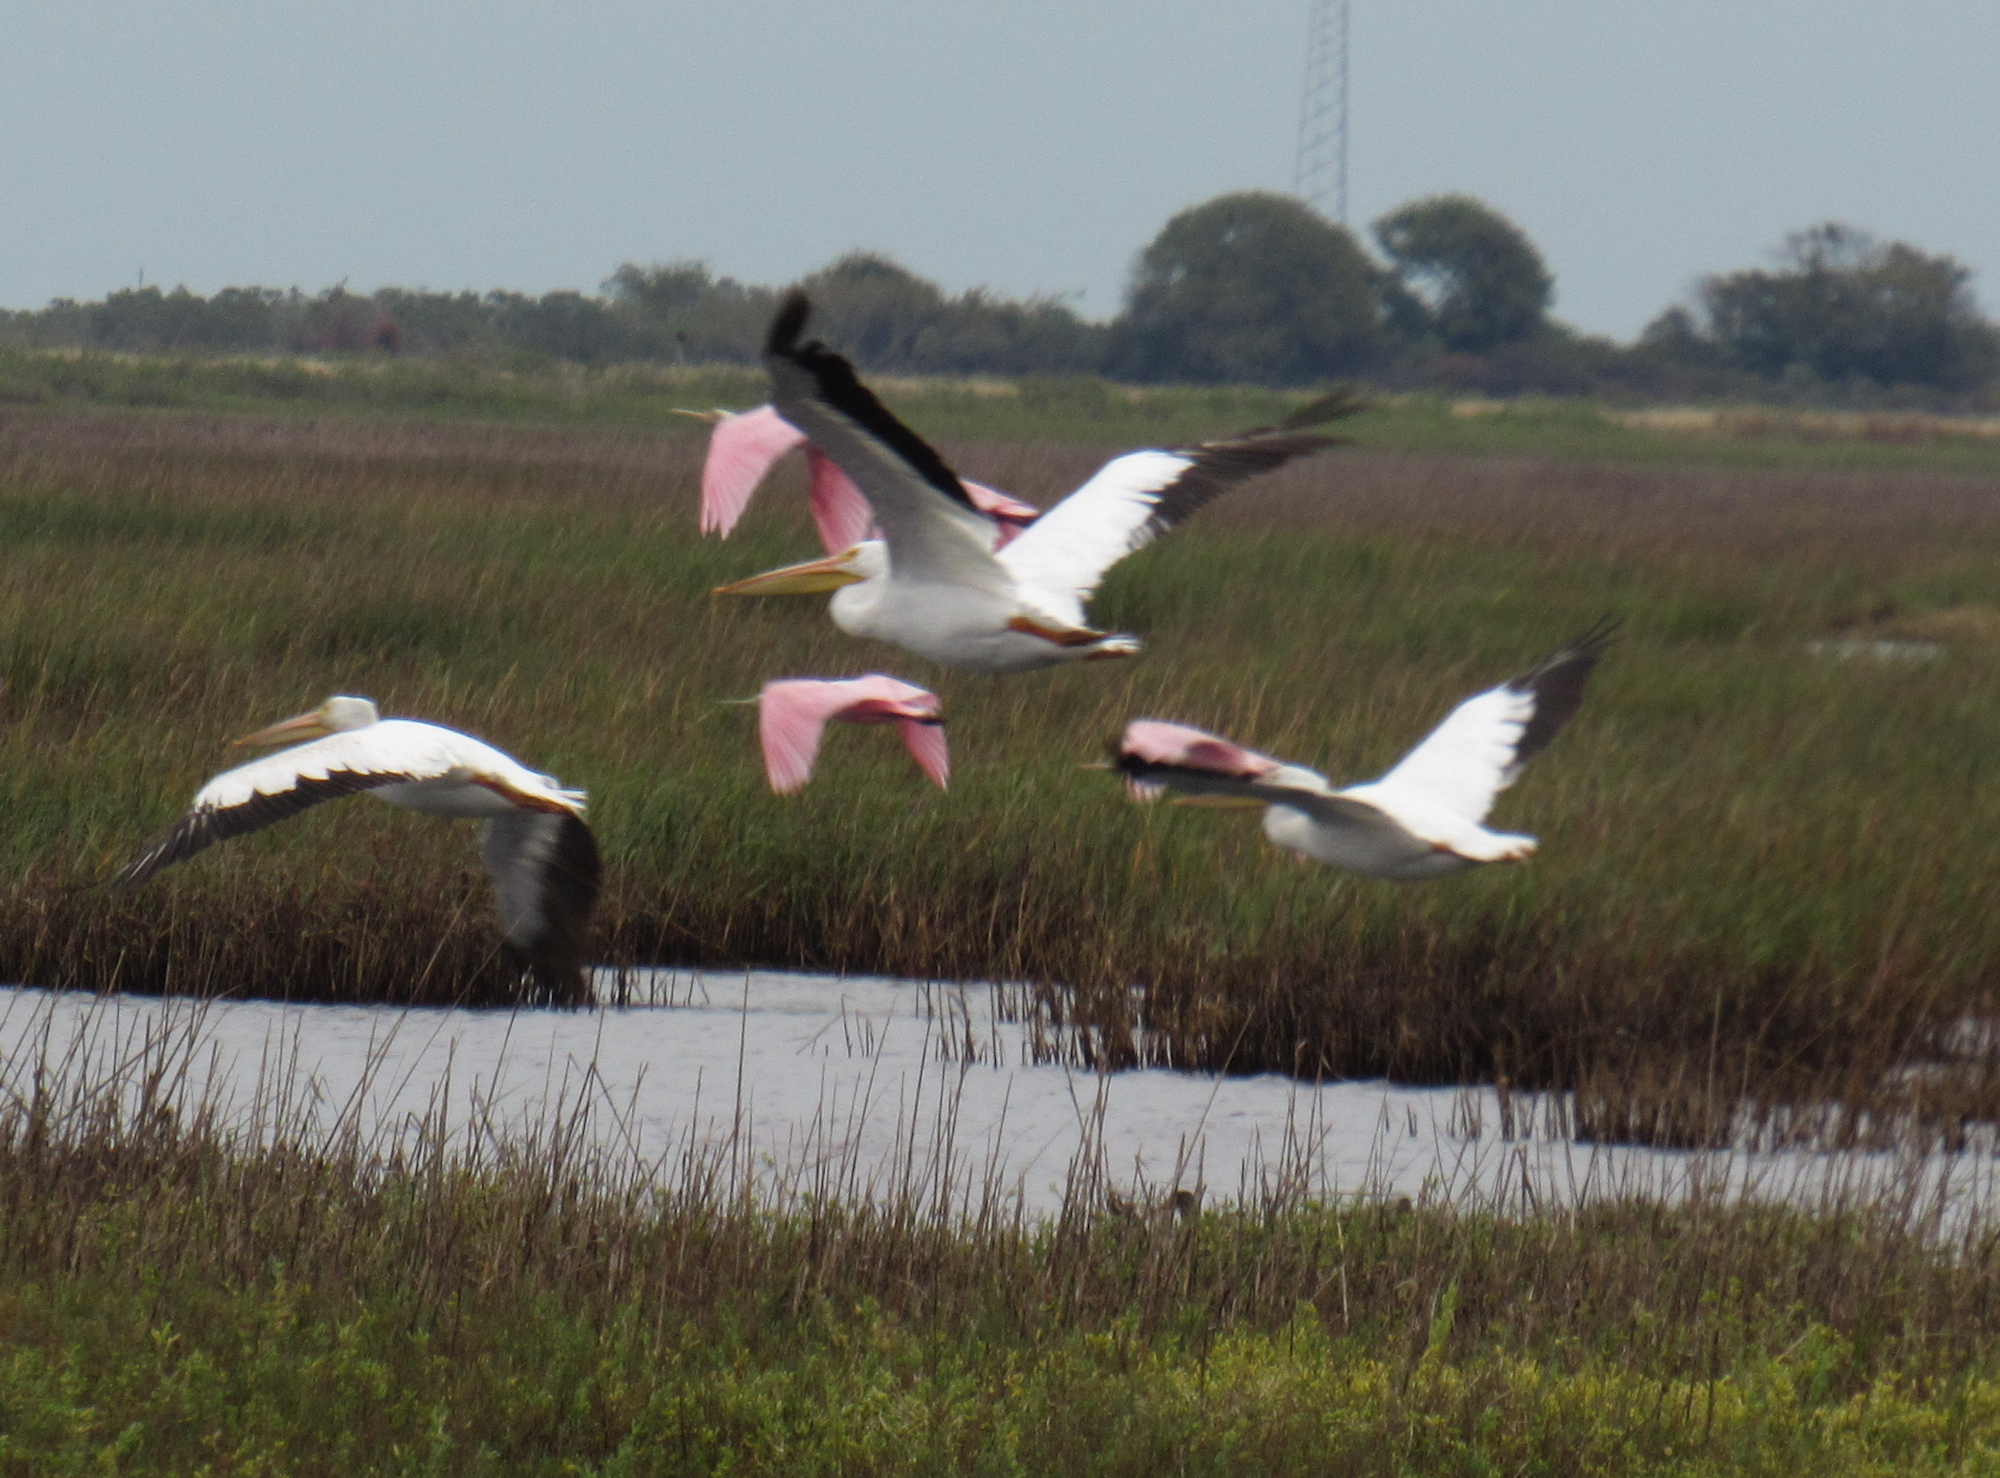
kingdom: Animalia
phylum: Chordata
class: Aves
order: Pelecaniformes
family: Pelecanidae
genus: Pelecanus
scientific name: Pelecanus erythrorhynchos
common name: American white pelican
